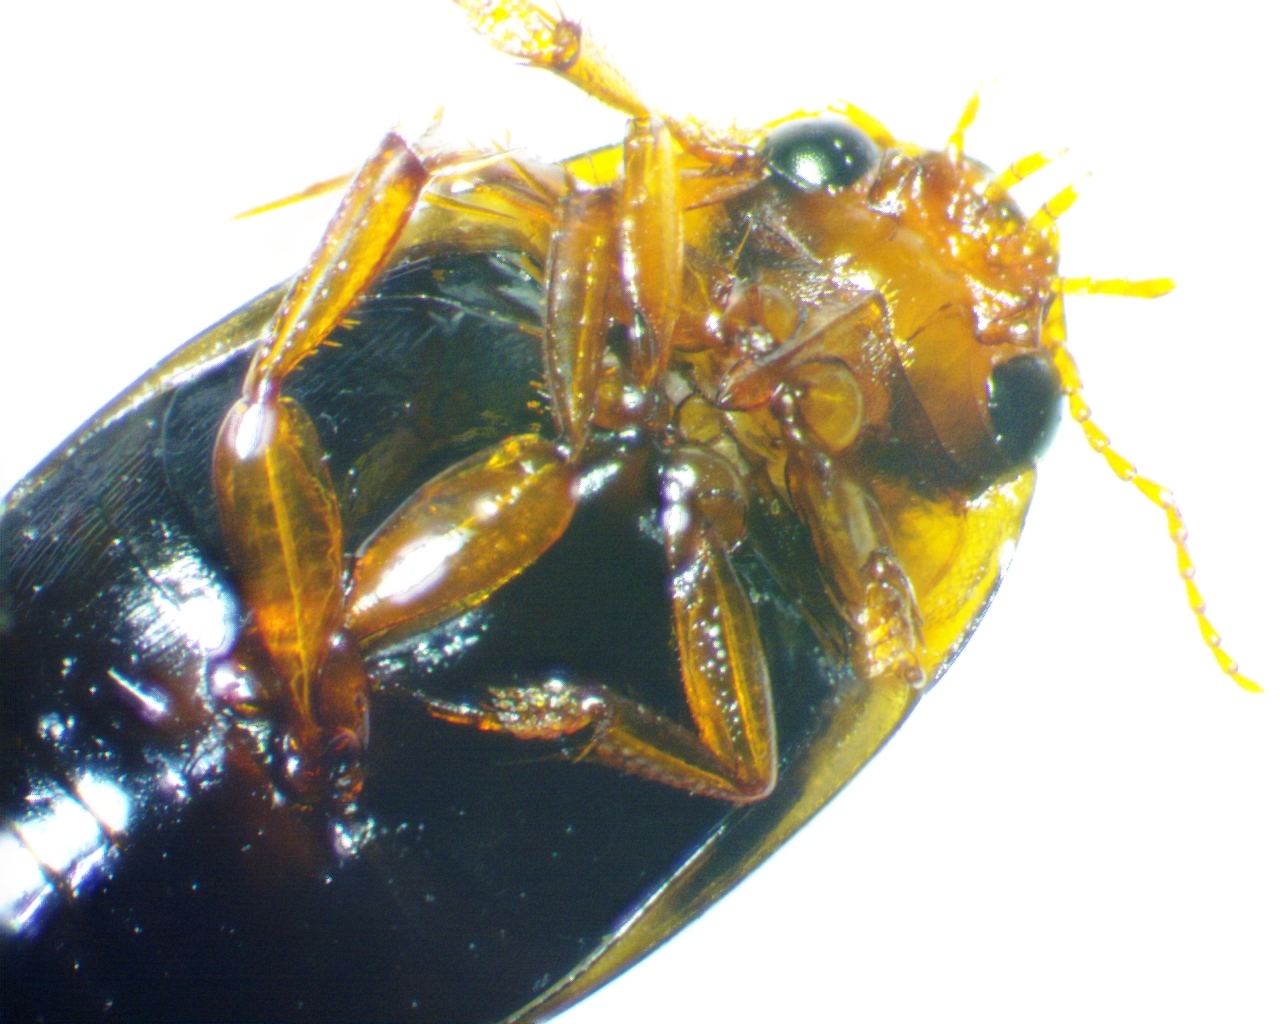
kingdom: Animalia
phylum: Arthropoda
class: Insecta
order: Coleoptera
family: Dytiscidae
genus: Copelatus
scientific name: Copelatus chevrolati
